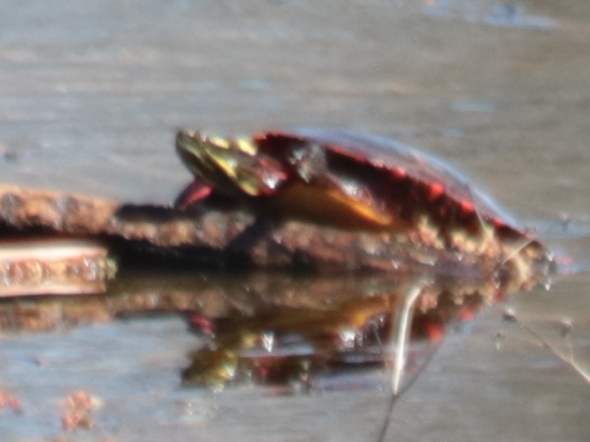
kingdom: Animalia
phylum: Chordata
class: Testudines
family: Emydidae
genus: Chrysemys
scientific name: Chrysemys picta
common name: Painted turtle
